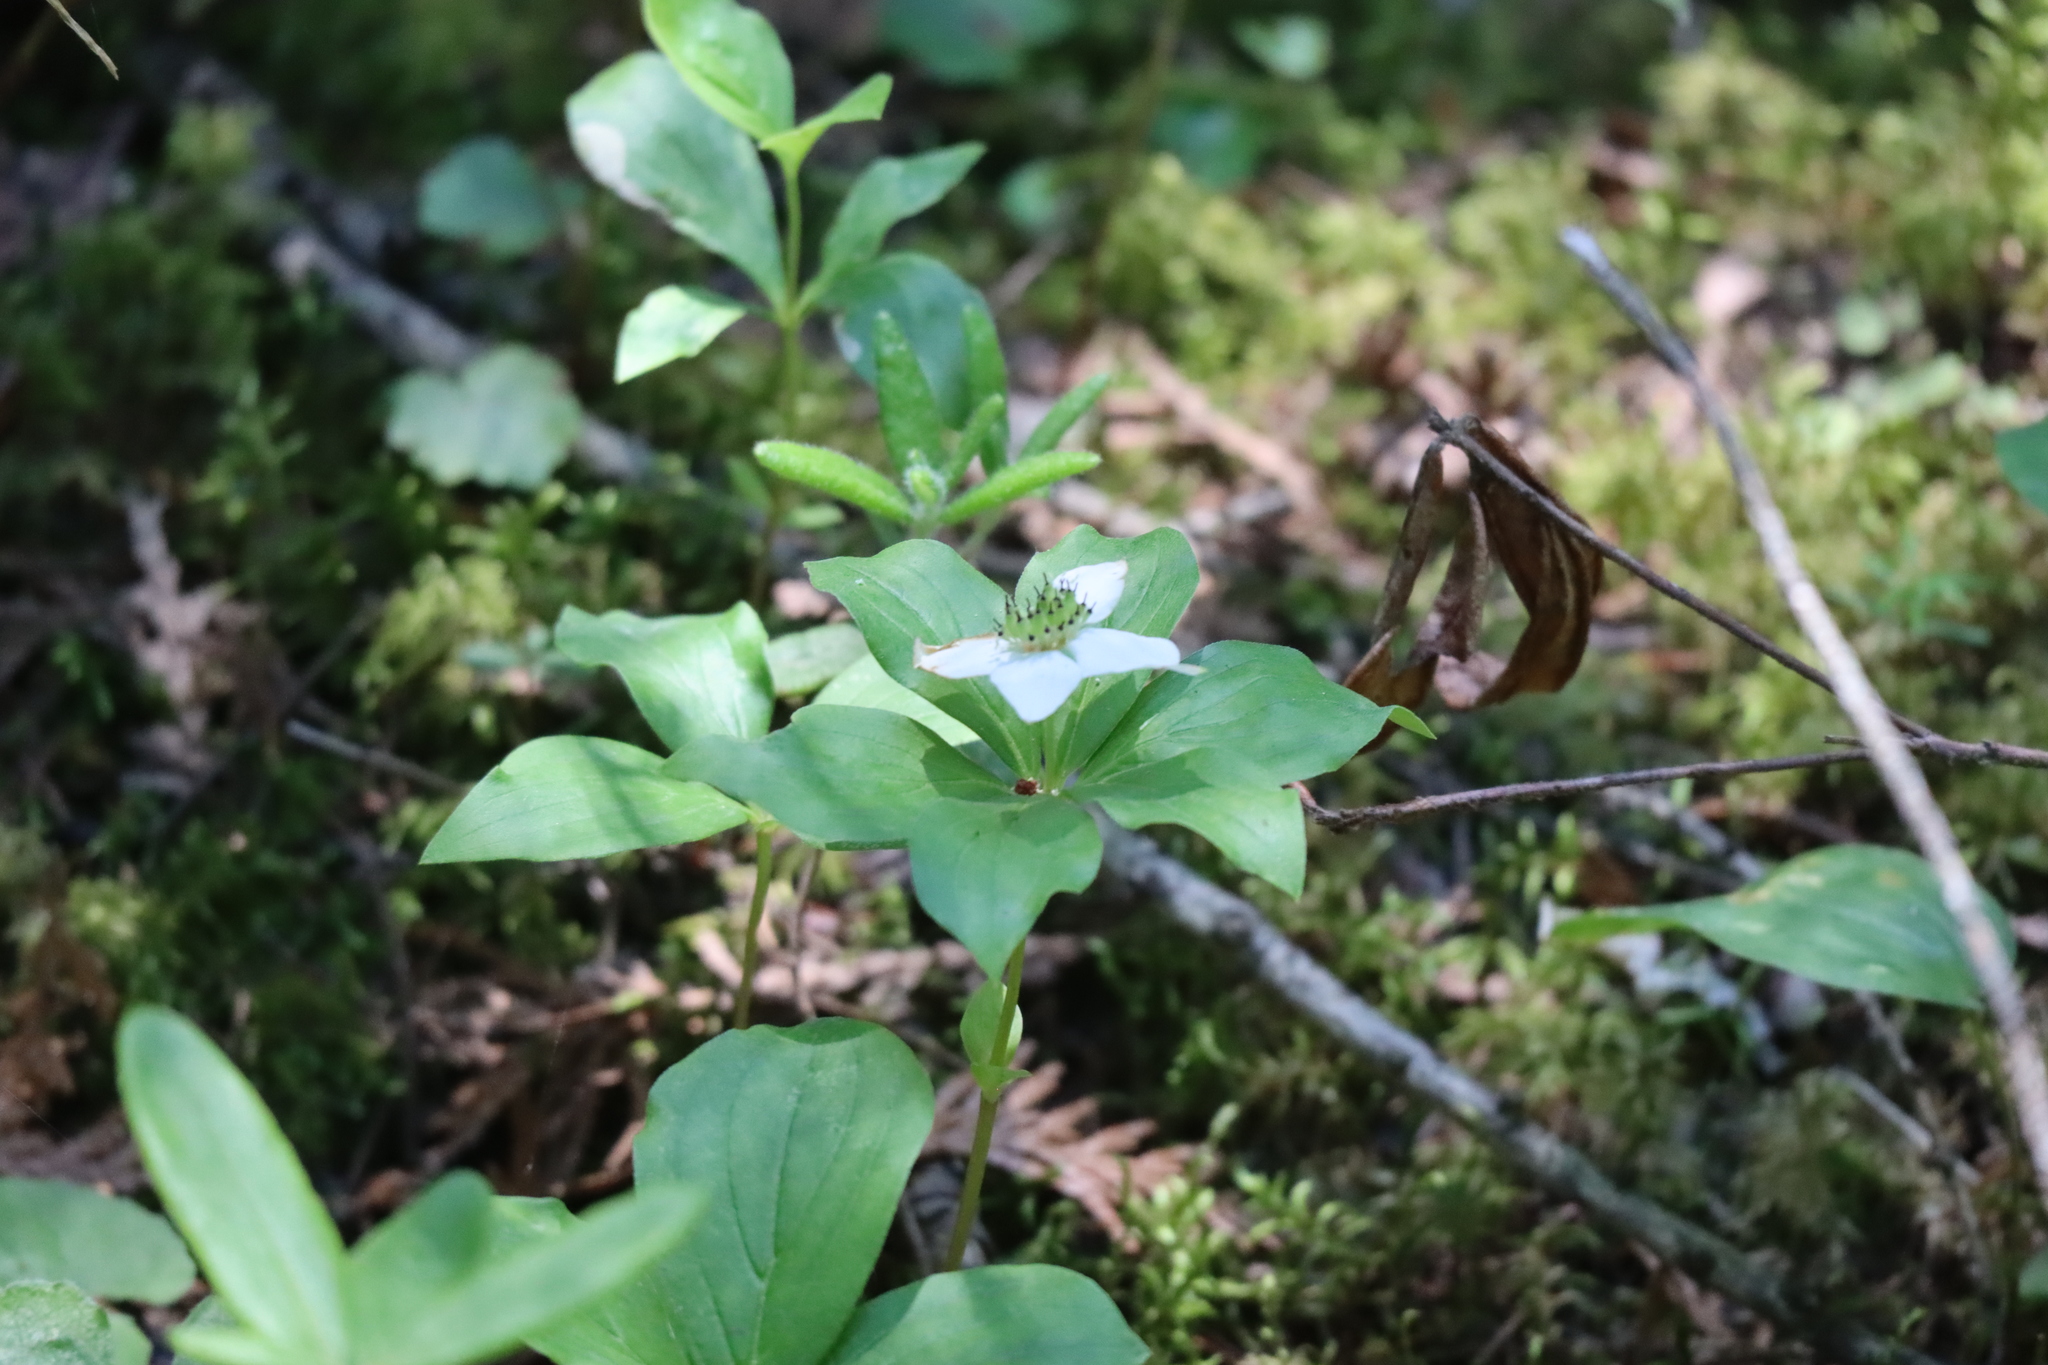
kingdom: Plantae
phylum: Tracheophyta
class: Magnoliopsida
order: Cornales
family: Cornaceae
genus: Cornus
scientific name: Cornus canadensis
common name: Creeping dogwood
